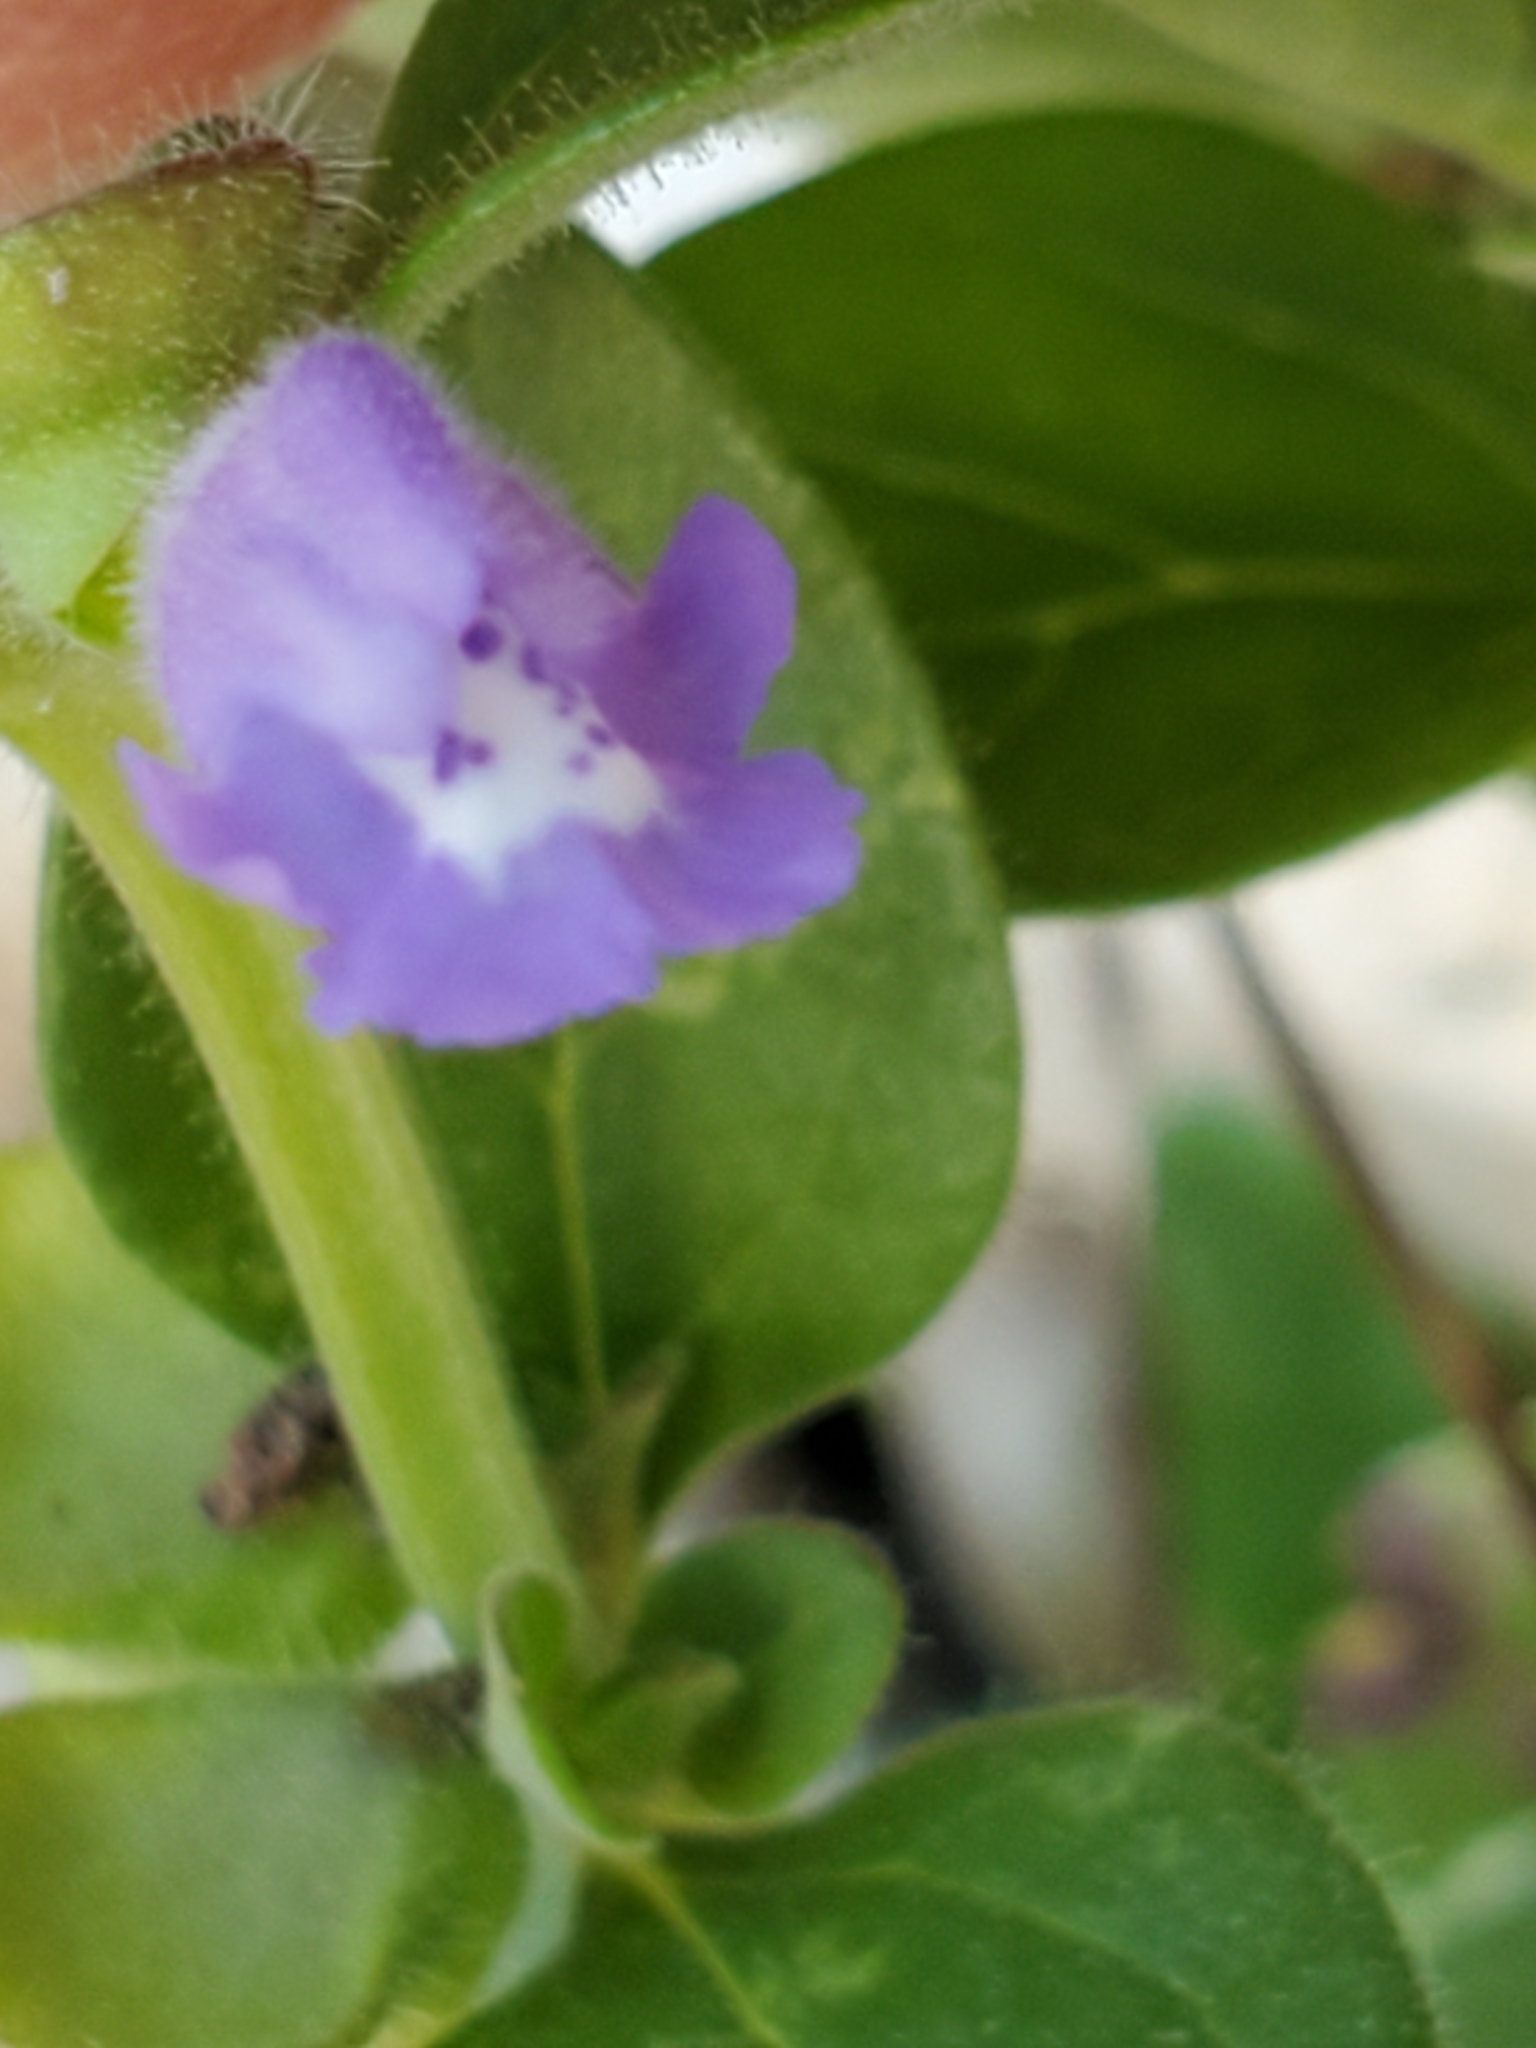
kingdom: Plantae
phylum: Tracheophyta
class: Magnoliopsida
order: Lamiales
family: Lamiaceae
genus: Scutellaria
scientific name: Scutellaria drummondii
